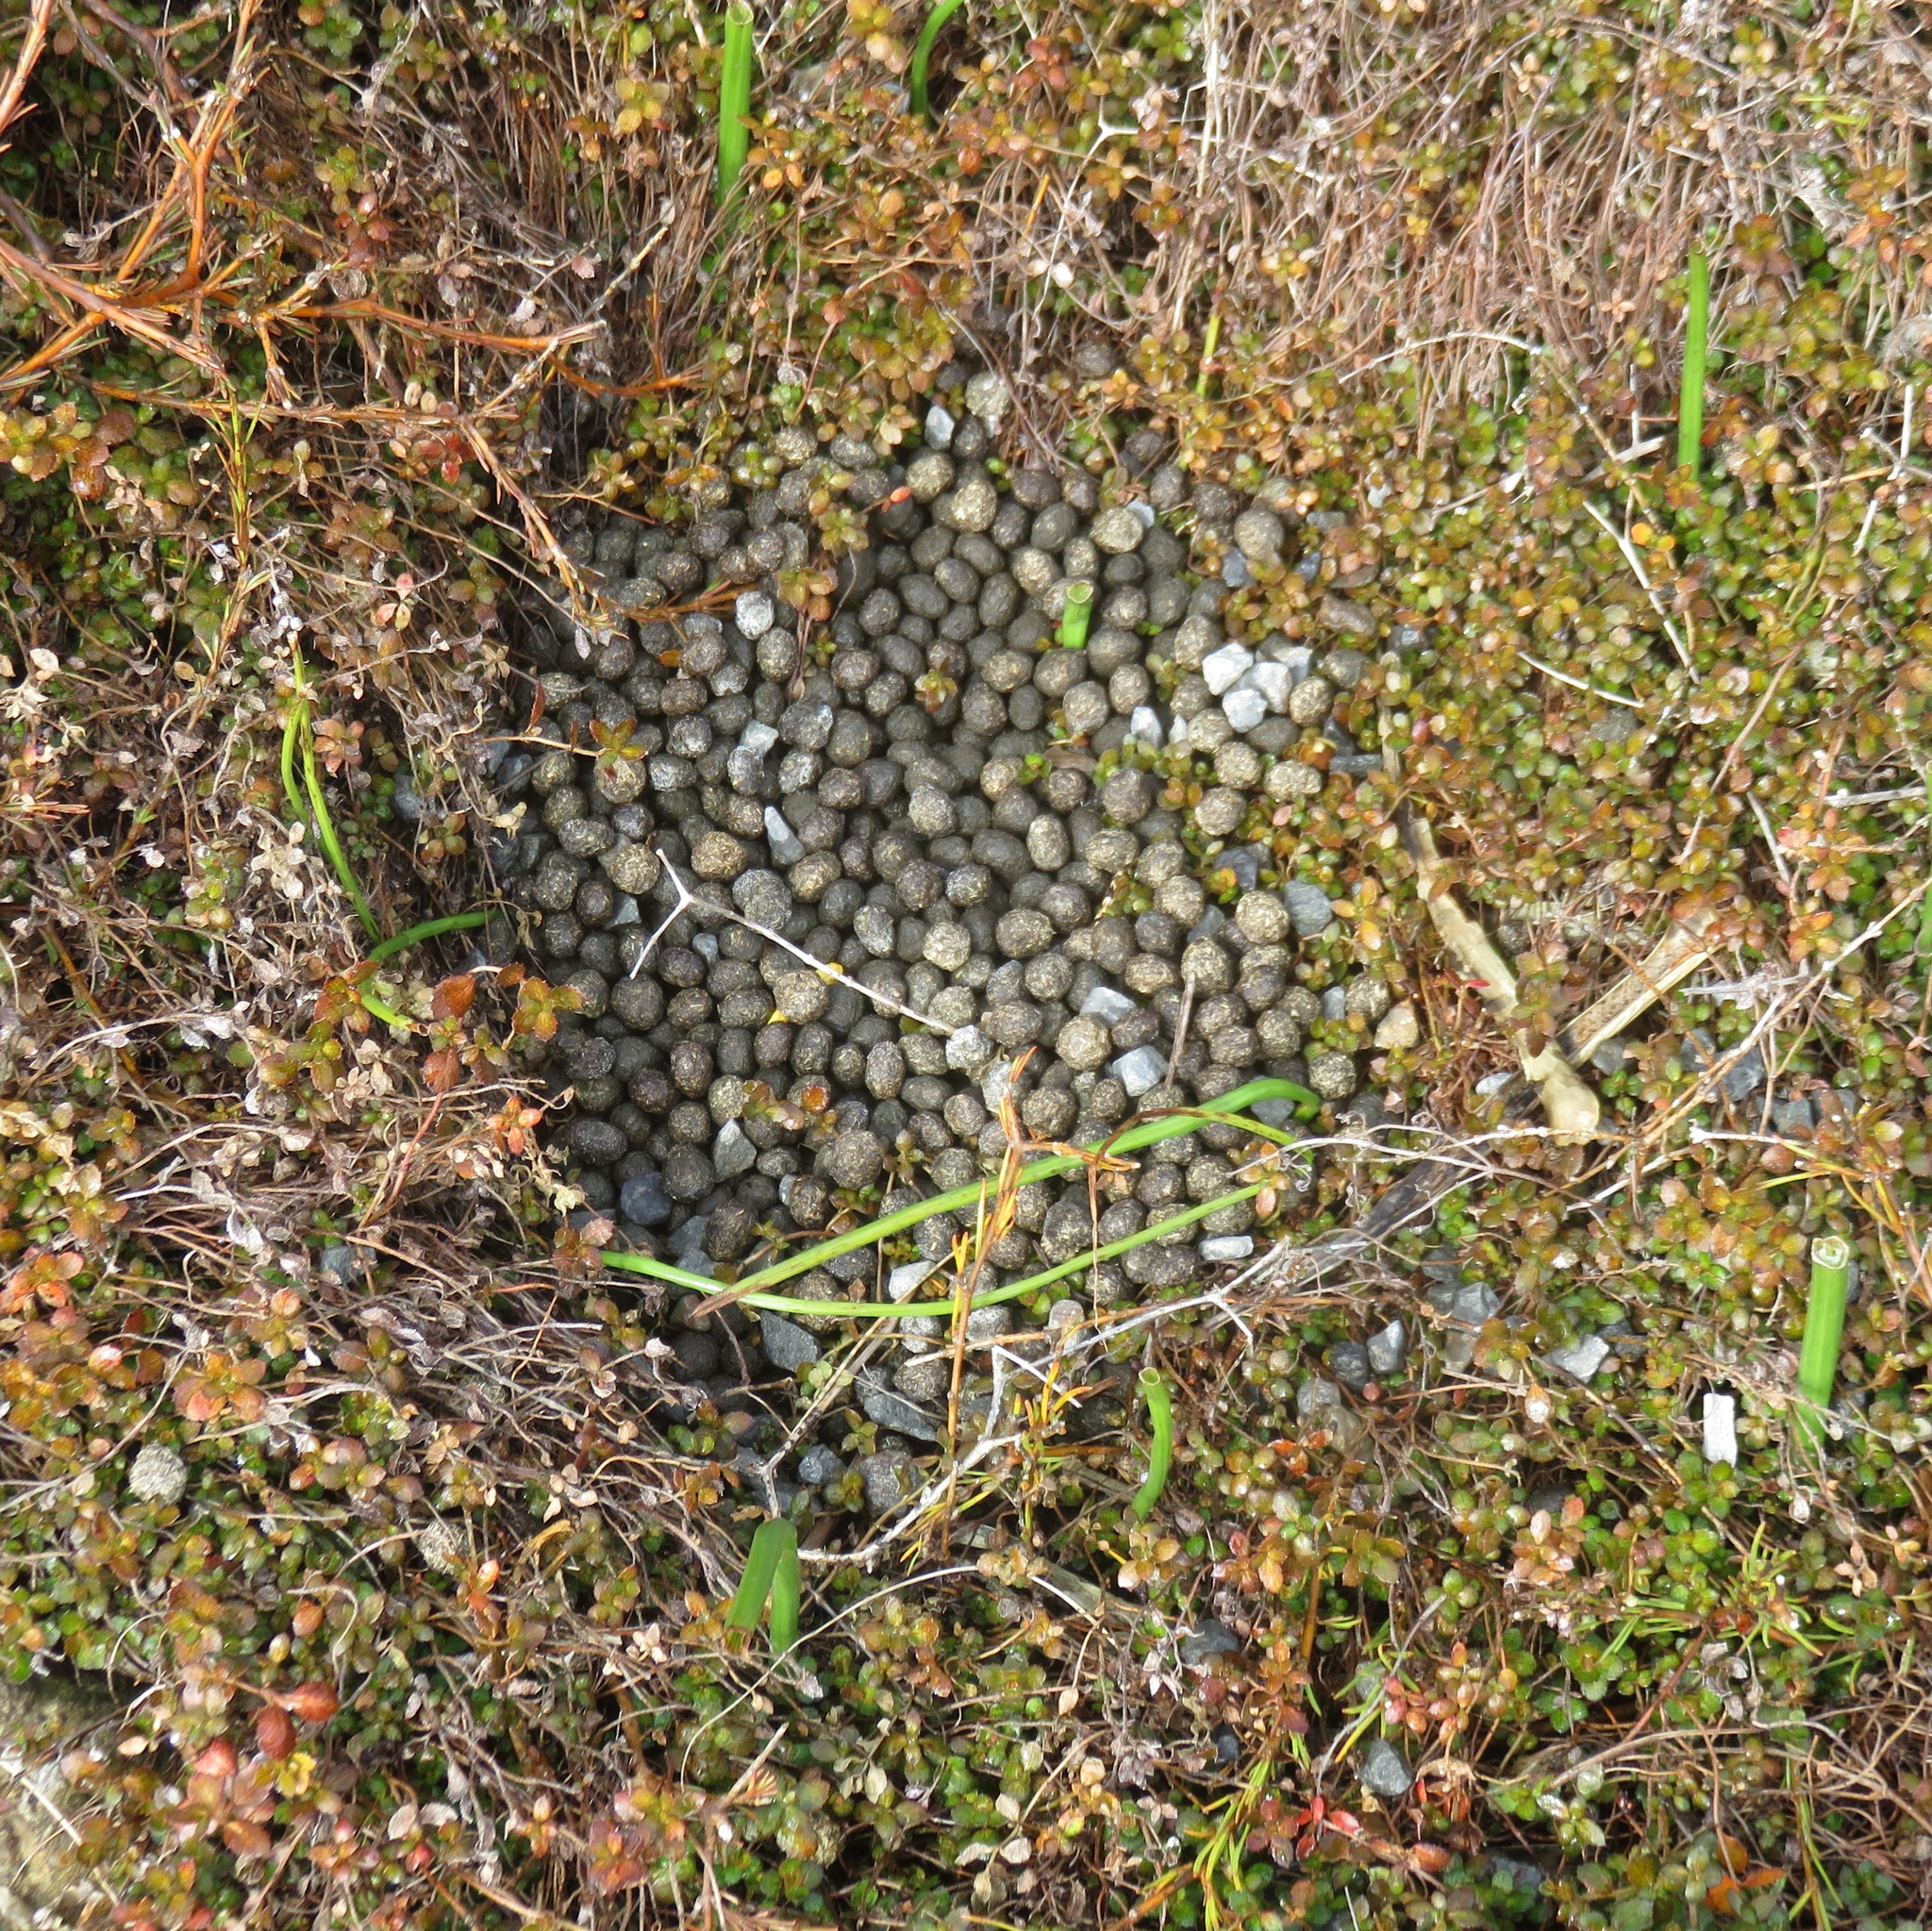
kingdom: Animalia
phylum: Chordata
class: Mammalia
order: Lagomorpha
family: Leporidae
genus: Oryctolagus
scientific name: Oryctolagus cuniculus
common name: European rabbit
